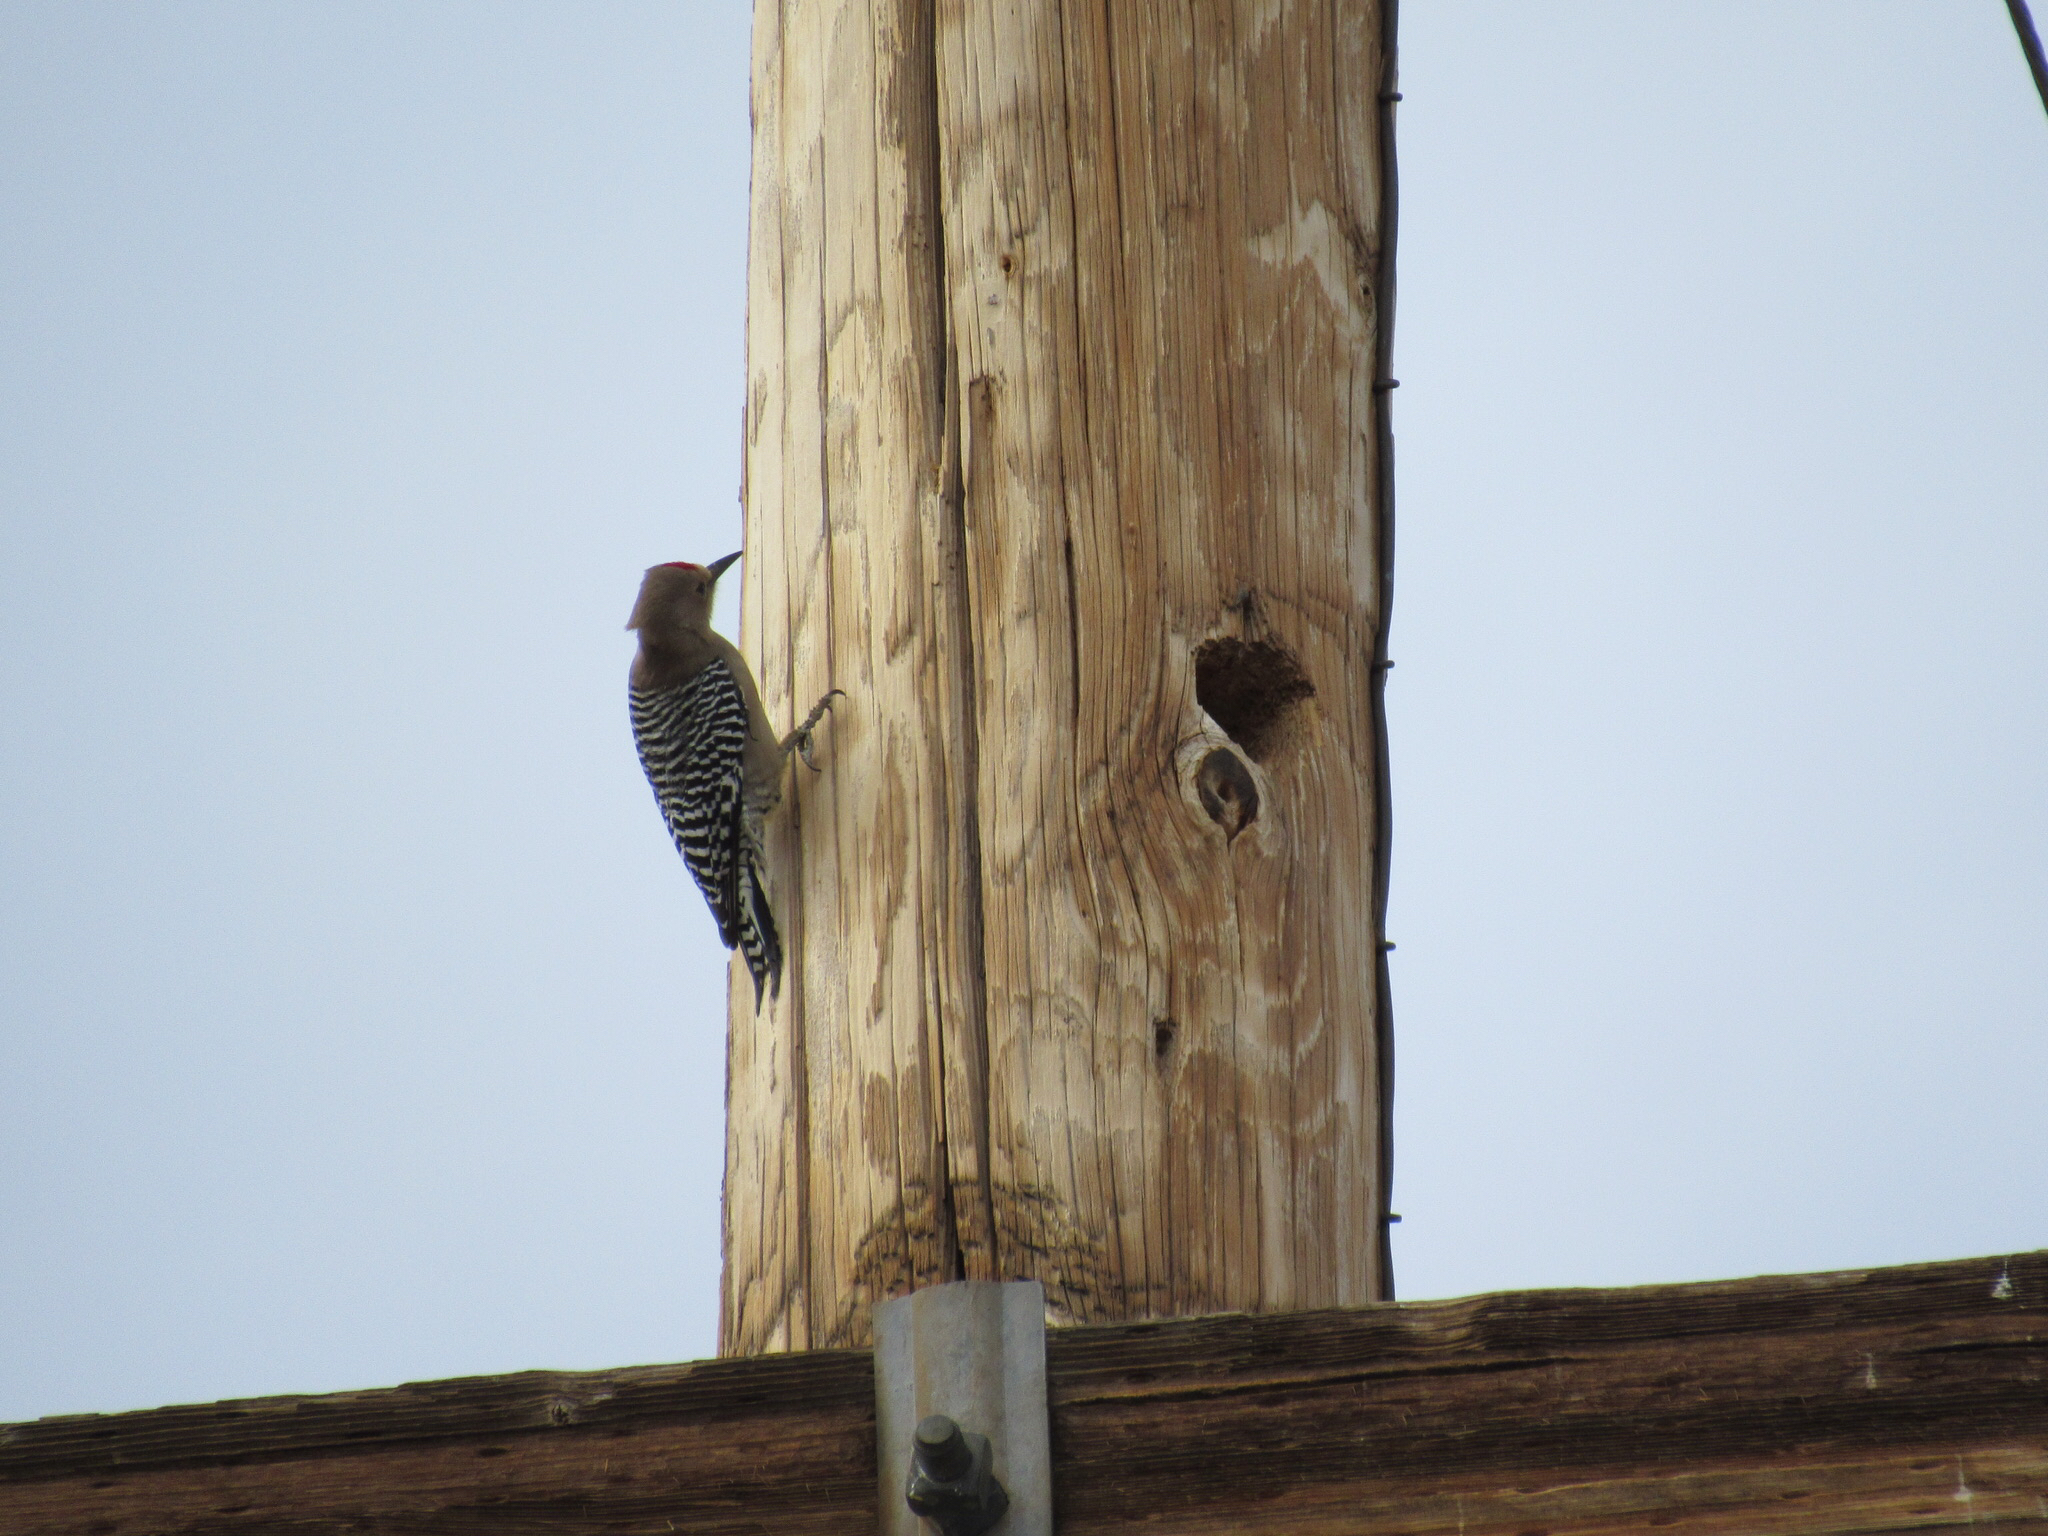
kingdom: Animalia
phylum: Chordata
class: Aves
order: Piciformes
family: Picidae
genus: Melanerpes
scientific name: Melanerpes uropygialis
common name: Gila woodpecker
